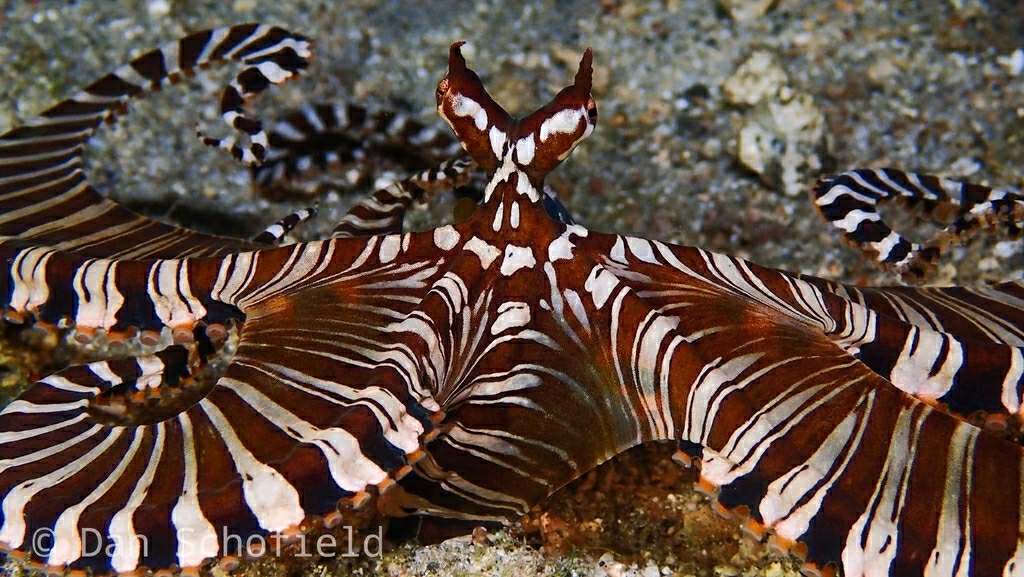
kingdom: Animalia
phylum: Mollusca
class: Cephalopoda
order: Octopoda
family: Octopodidae
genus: Wunderpus
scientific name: Wunderpus photogenicus
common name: Wunderpus
